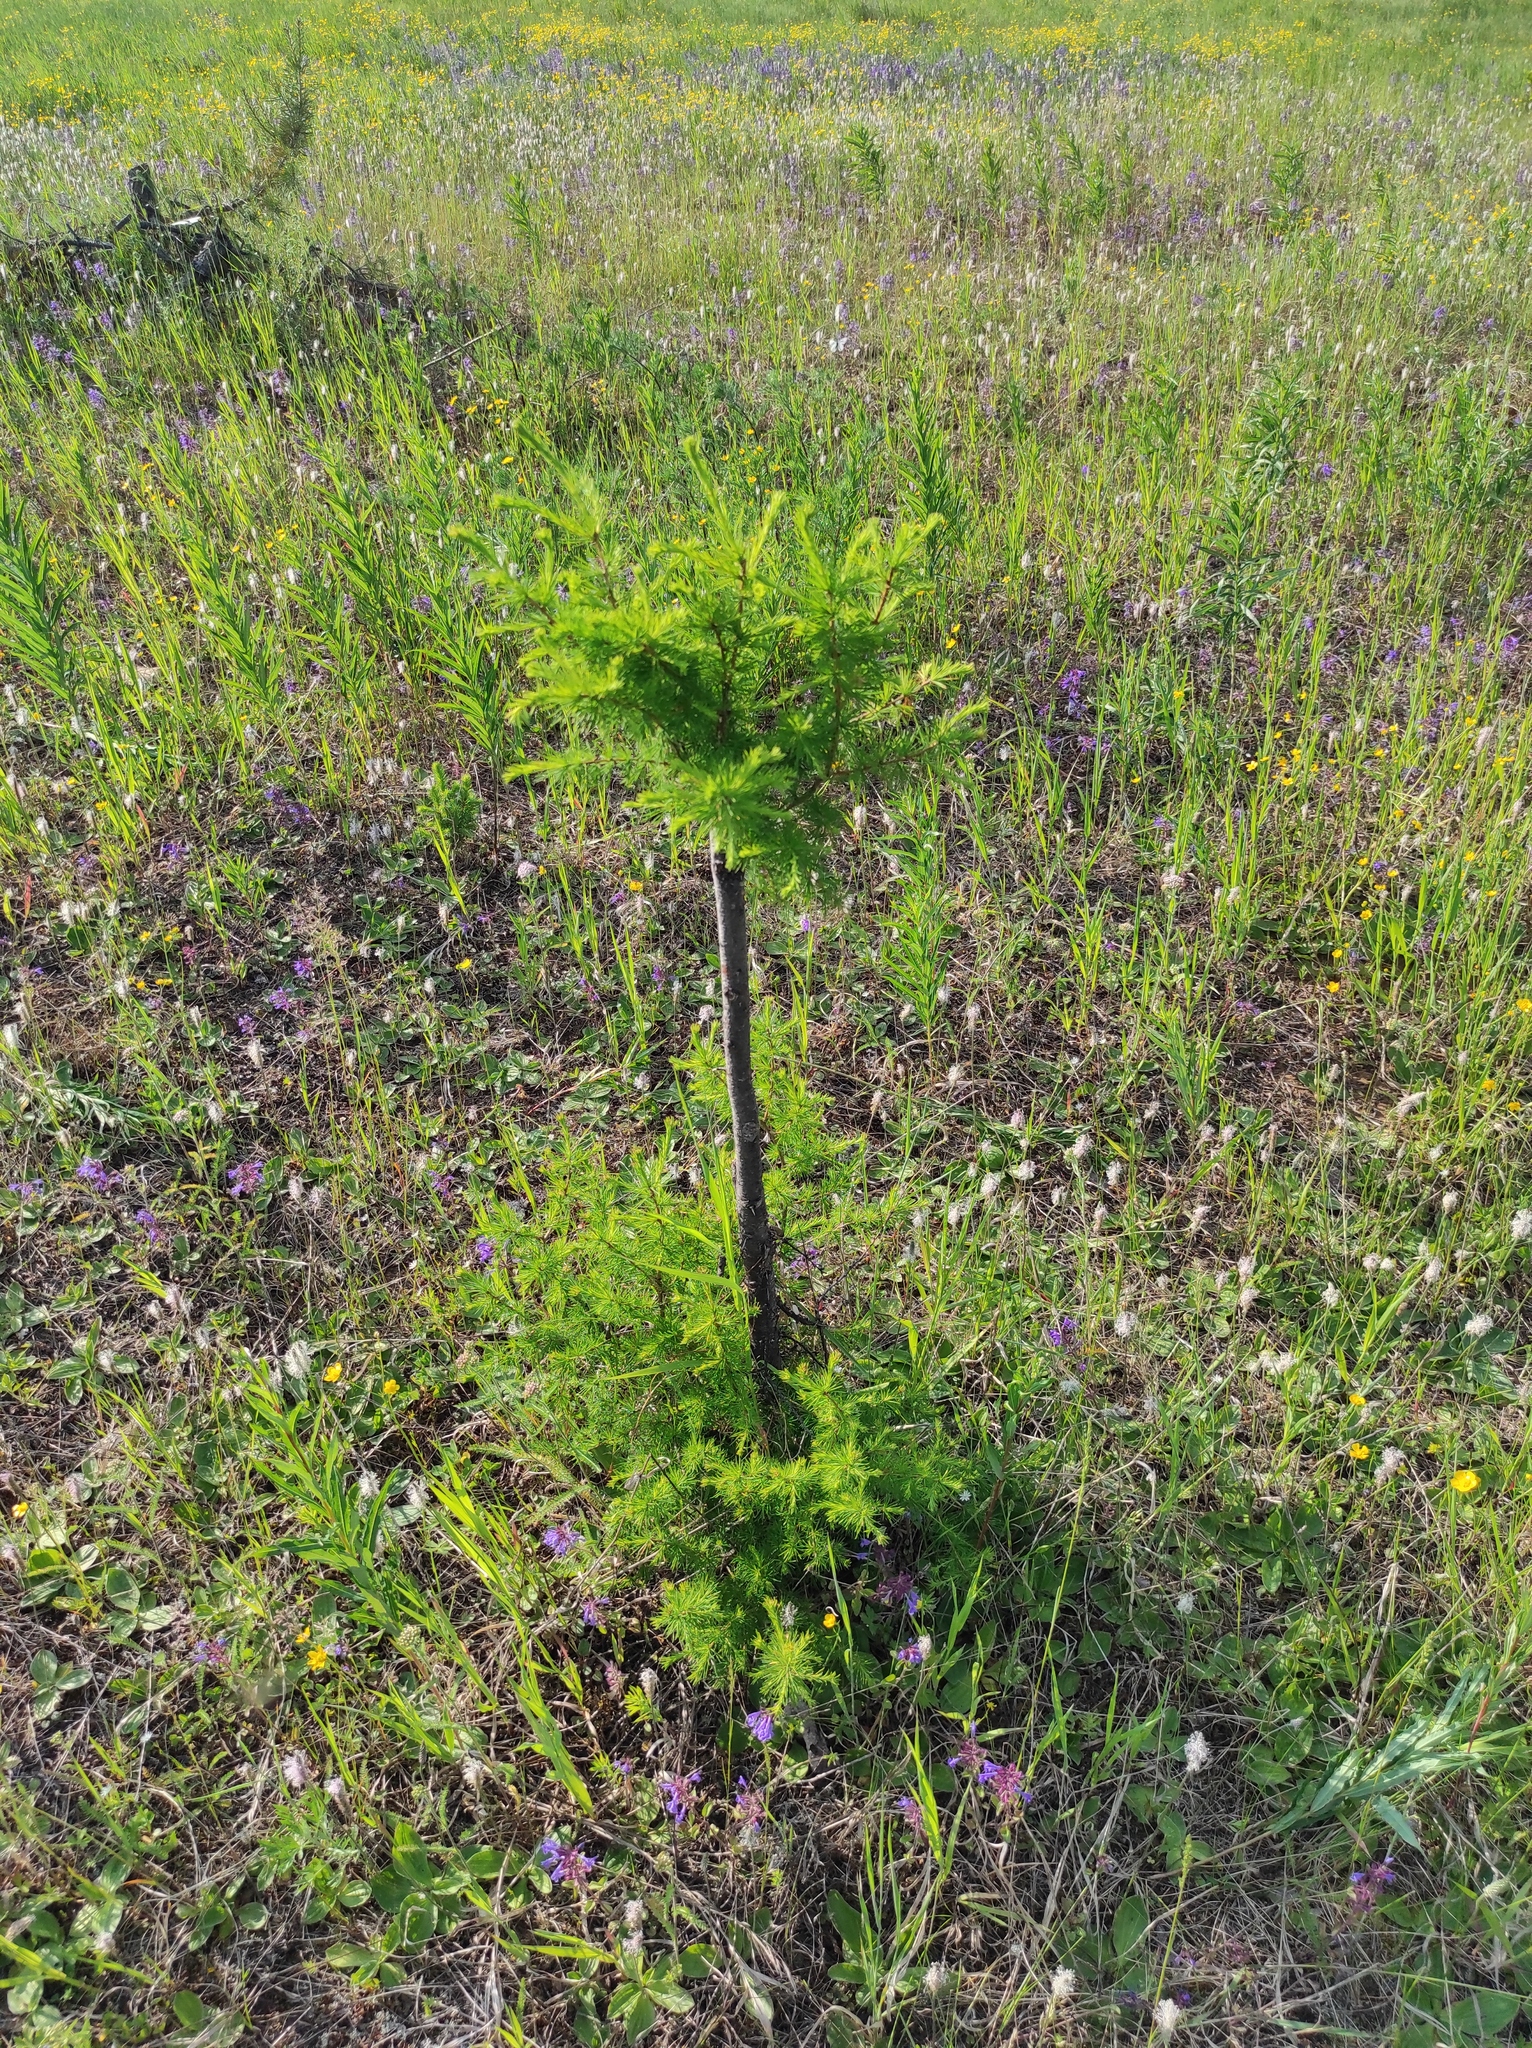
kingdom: Plantae
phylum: Tracheophyta
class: Pinopsida
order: Pinales
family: Pinaceae
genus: Larix
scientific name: Larix gmelinii
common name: Dahurian larch
